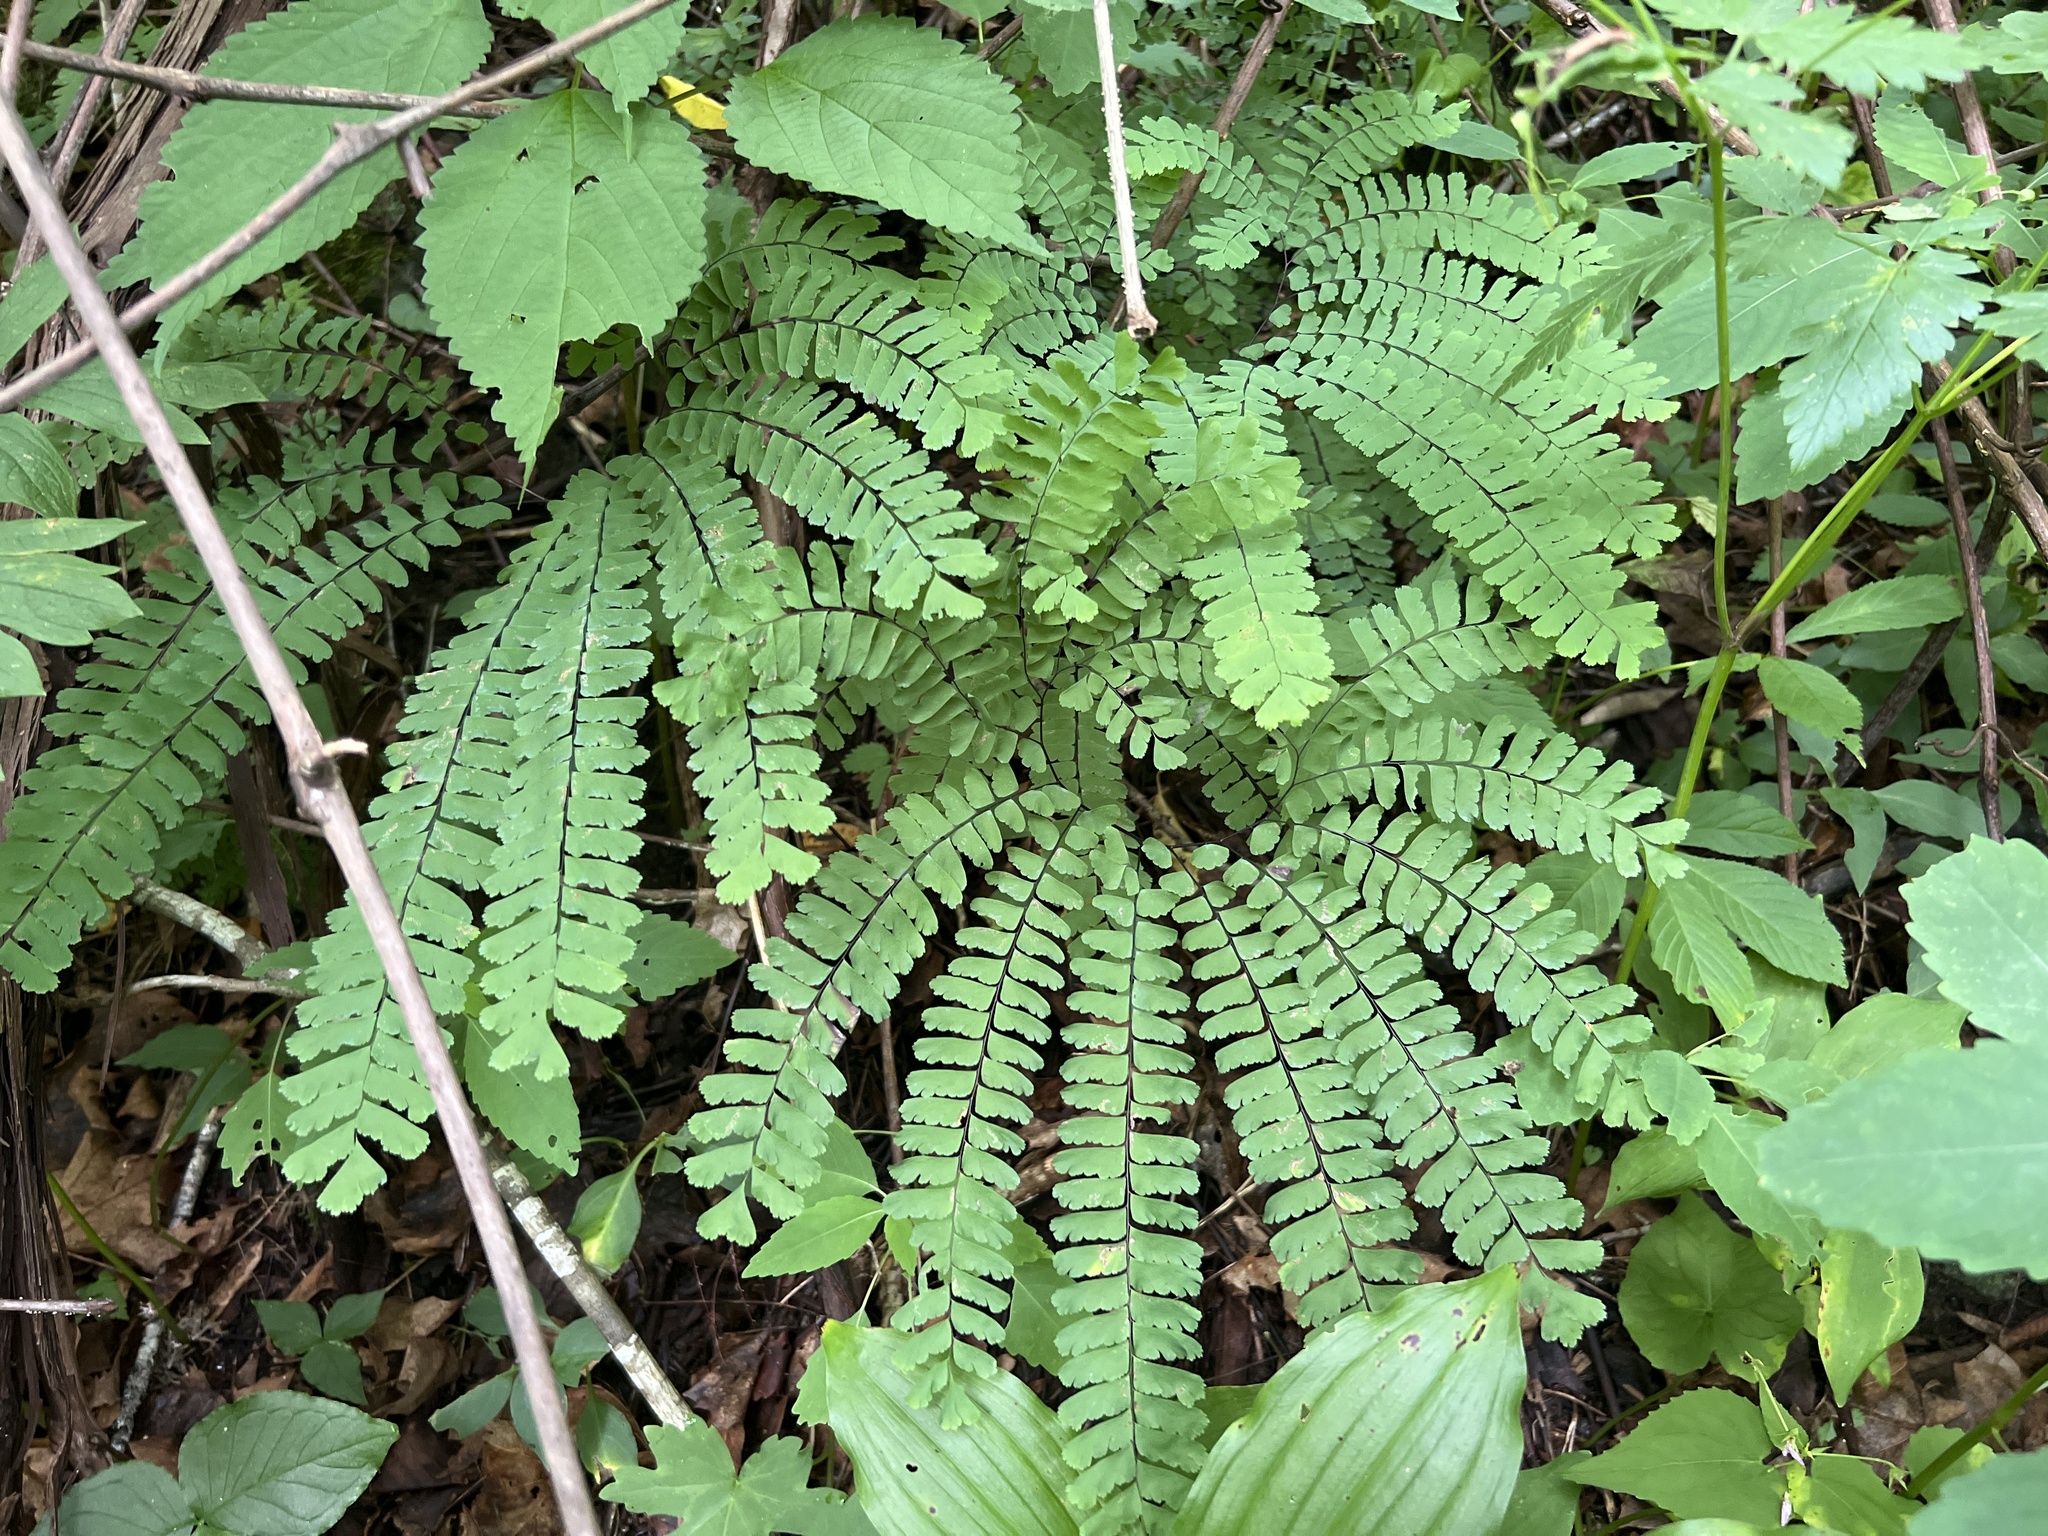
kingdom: Plantae
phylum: Tracheophyta
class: Polypodiopsida
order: Polypodiales
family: Pteridaceae
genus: Adiantum
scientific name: Adiantum pedatum
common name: Five-finger fern
